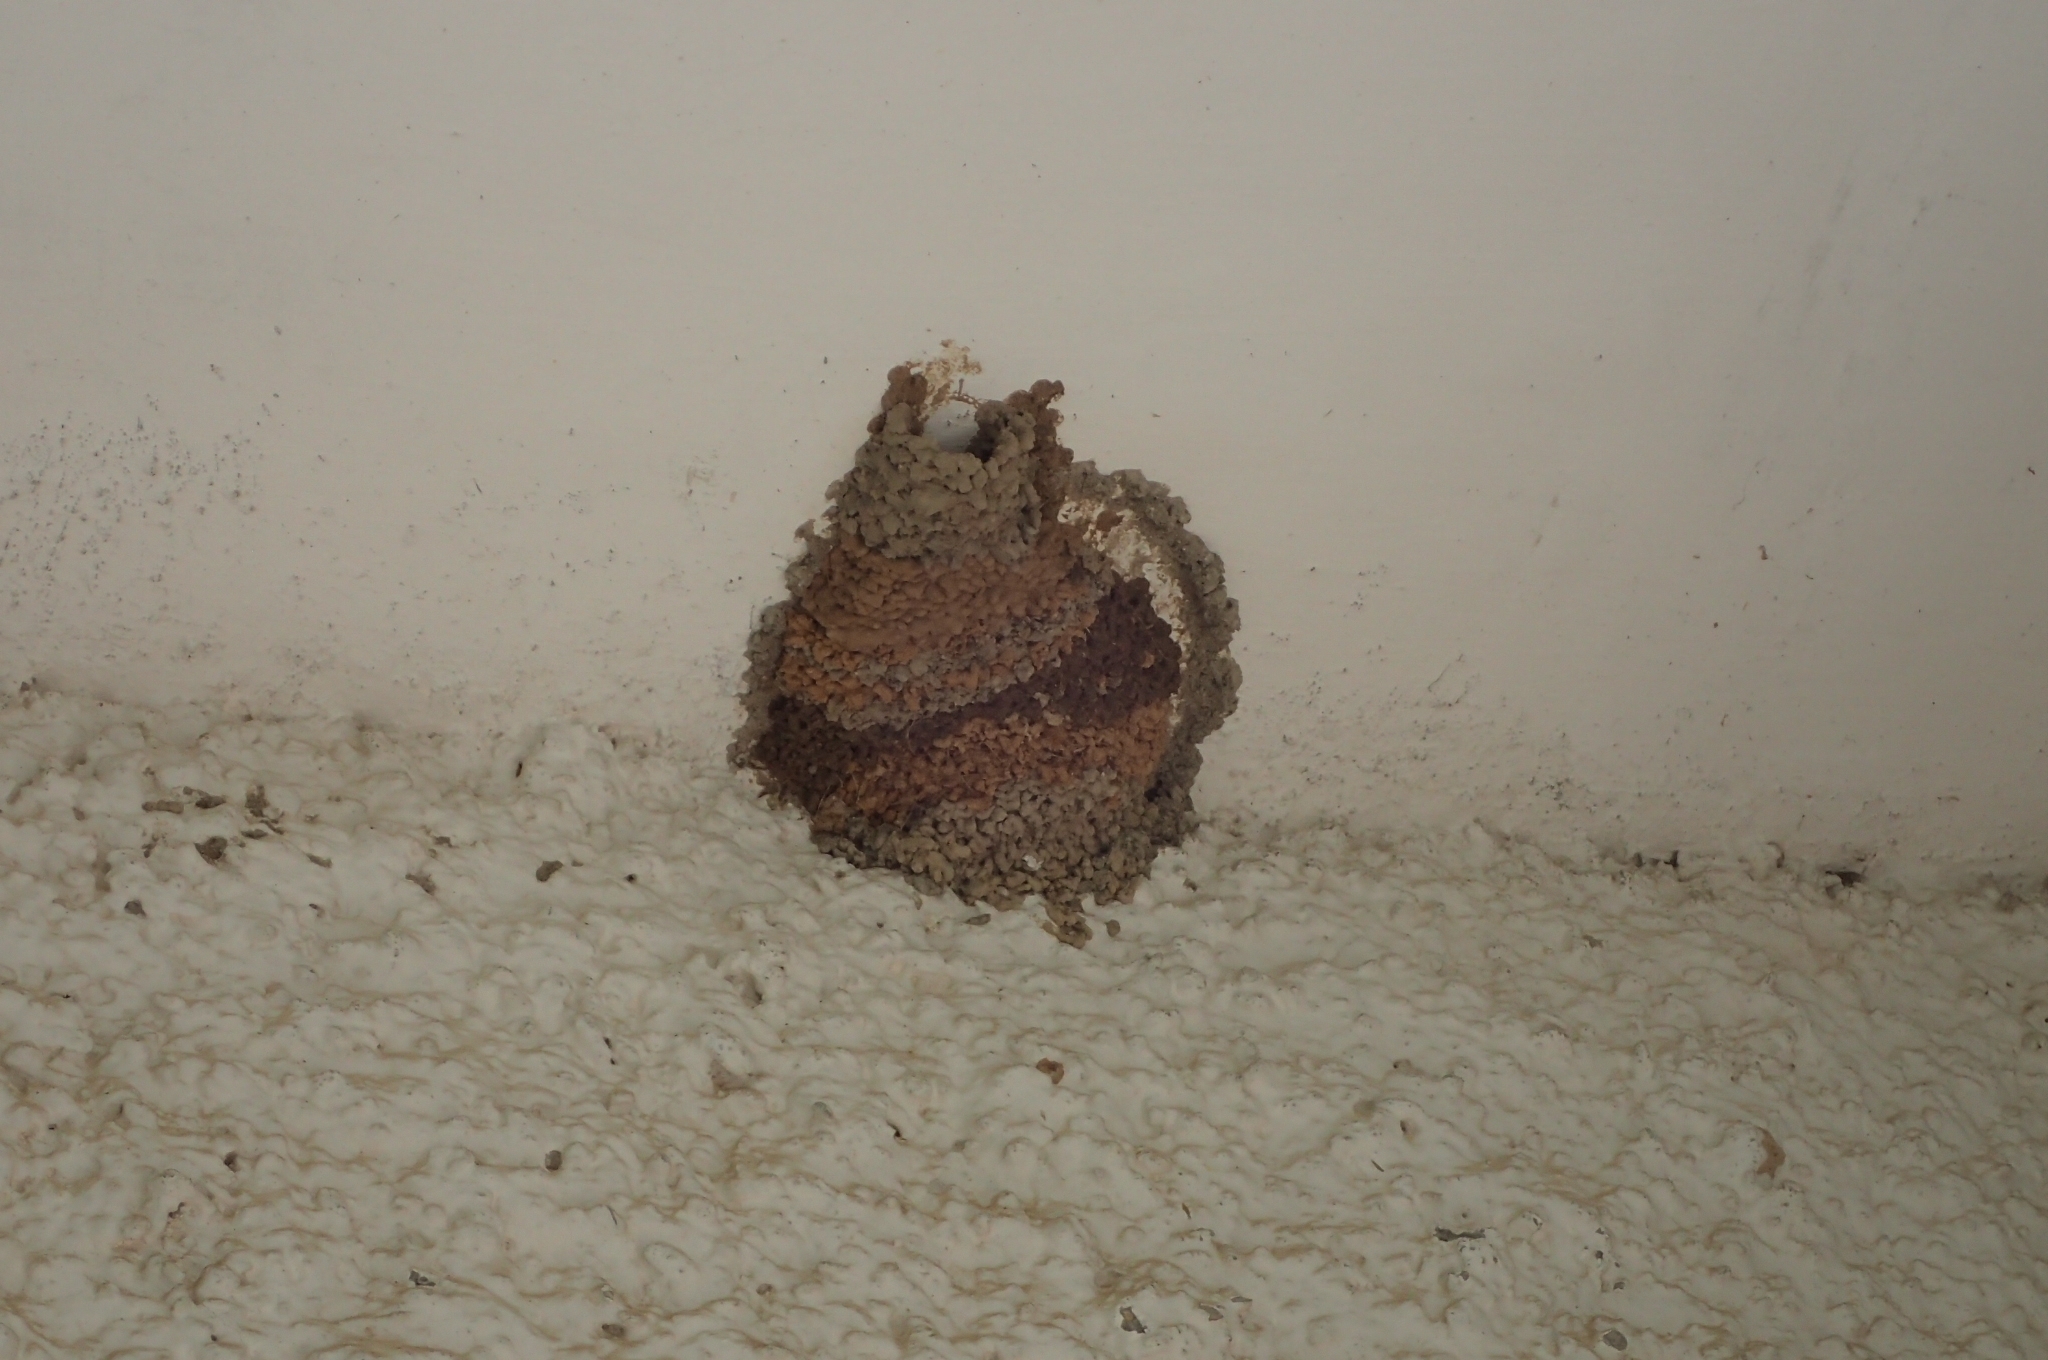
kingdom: Animalia
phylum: Chordata
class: Aves
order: Passeriformes
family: Hirundinidae
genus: Cecropis
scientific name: Cecropis daurica
